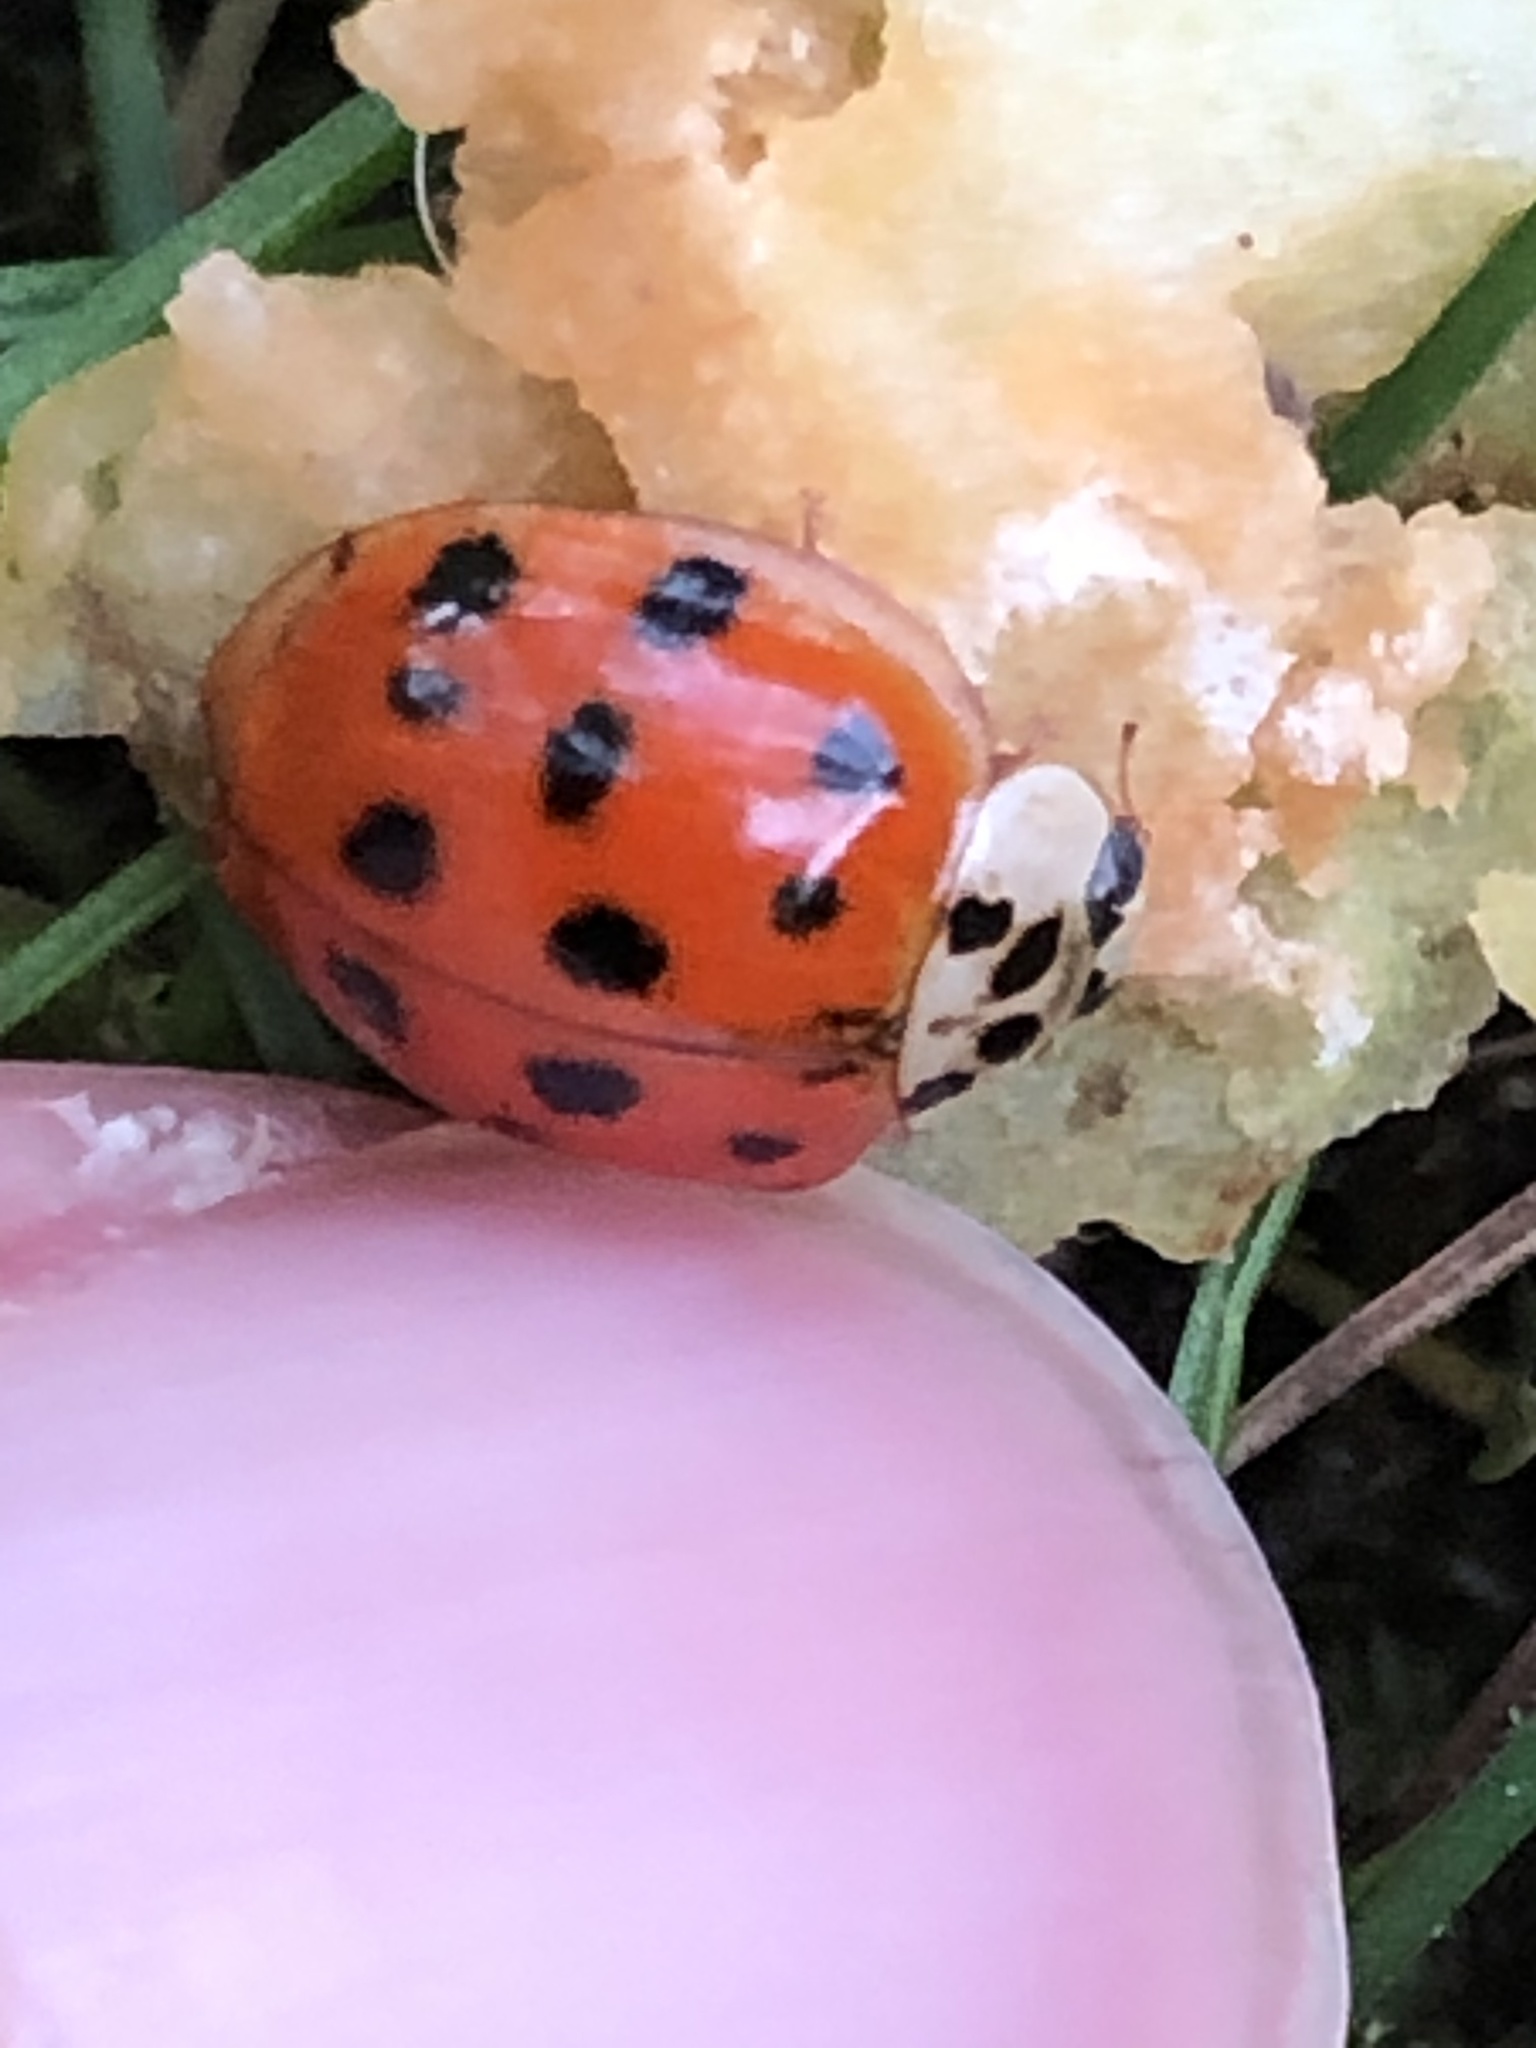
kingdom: Animalia
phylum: Arthropoda
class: Insecta
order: Coleoptera
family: Coccinellidae
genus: Harmonia
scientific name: Harmonia axyridis
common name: Harlequin ladybird
